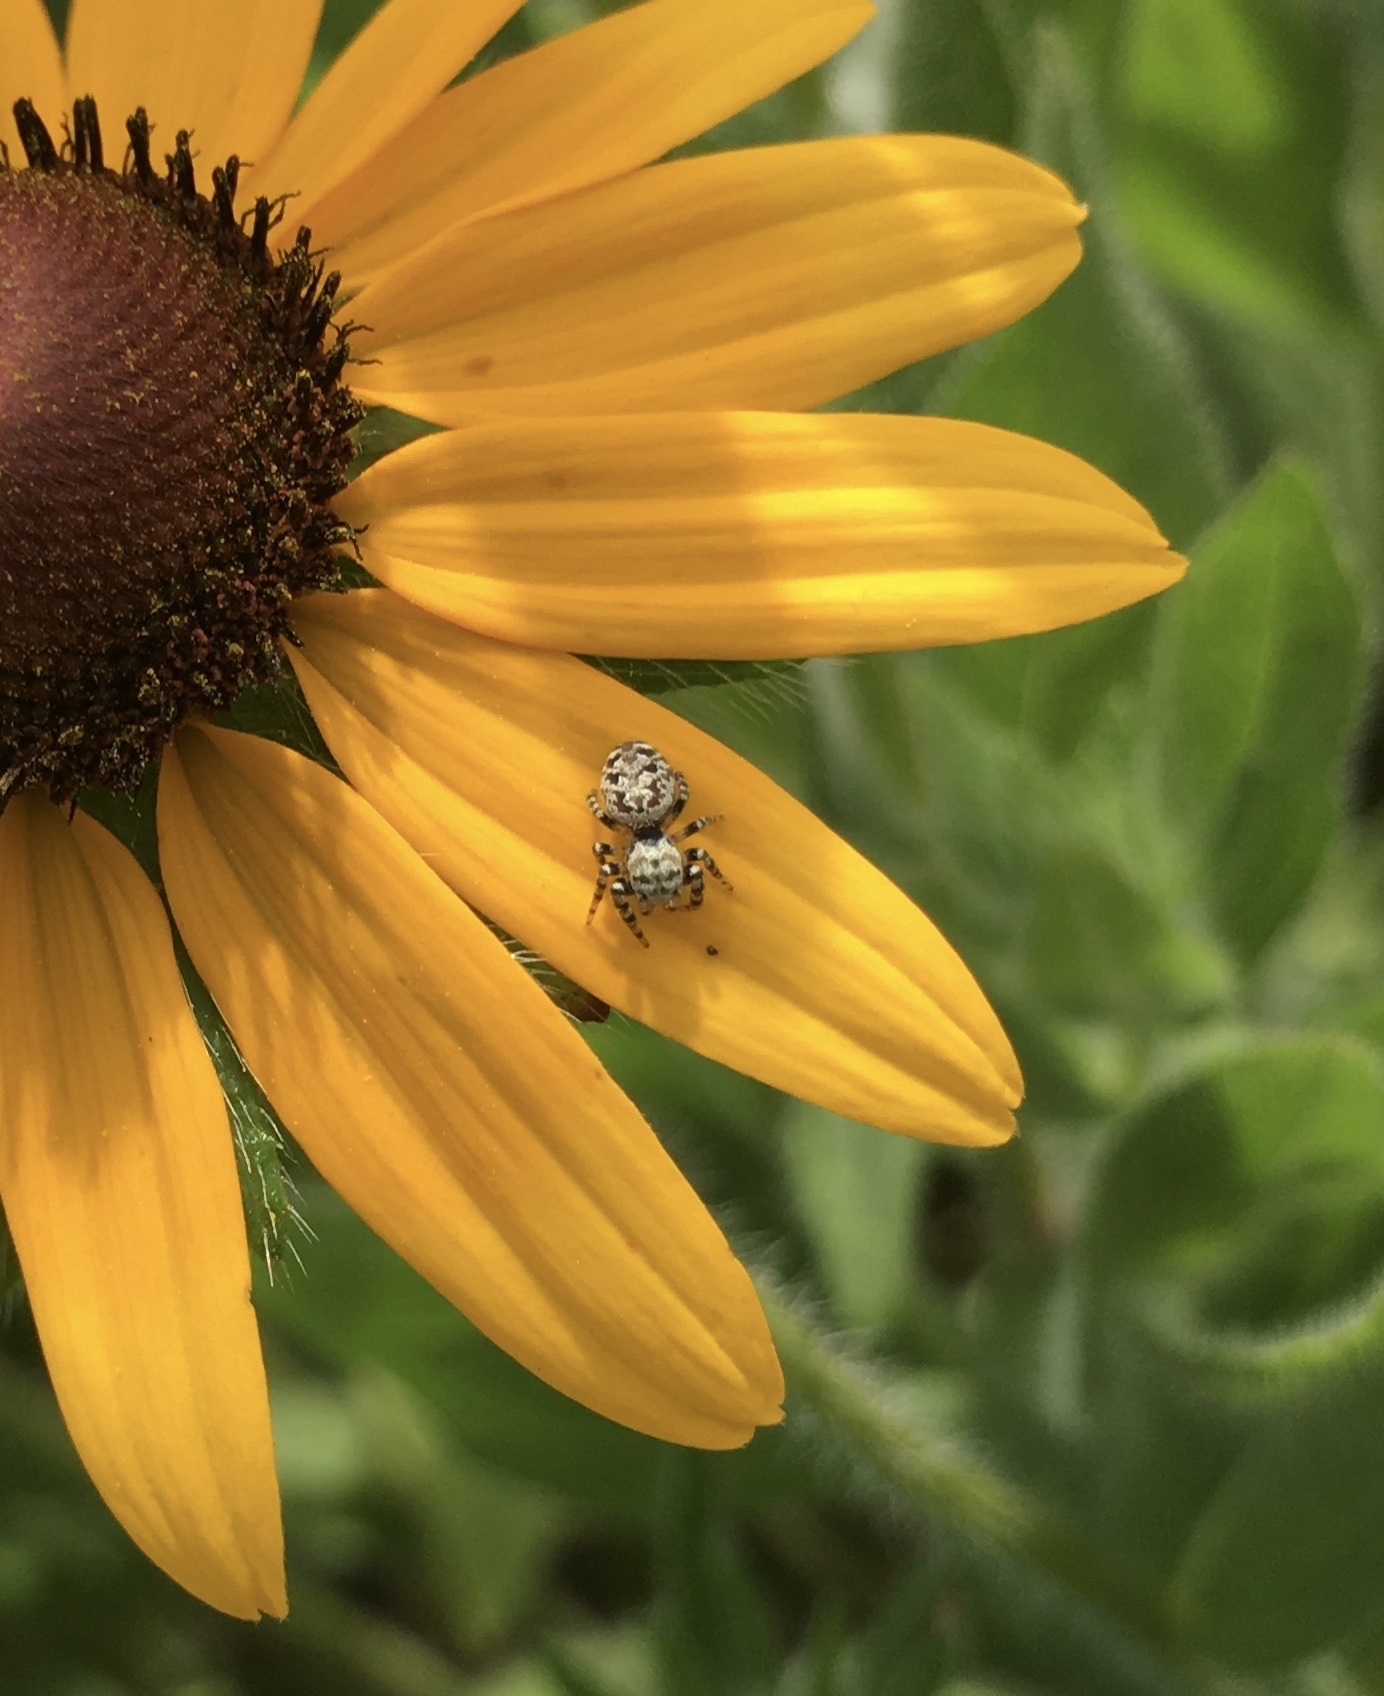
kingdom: Animalia
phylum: Arthropoda
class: Arachnida
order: Araneae
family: Salticidae
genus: Pelegrina
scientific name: Pelegrina galathea
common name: Jumping spiders
